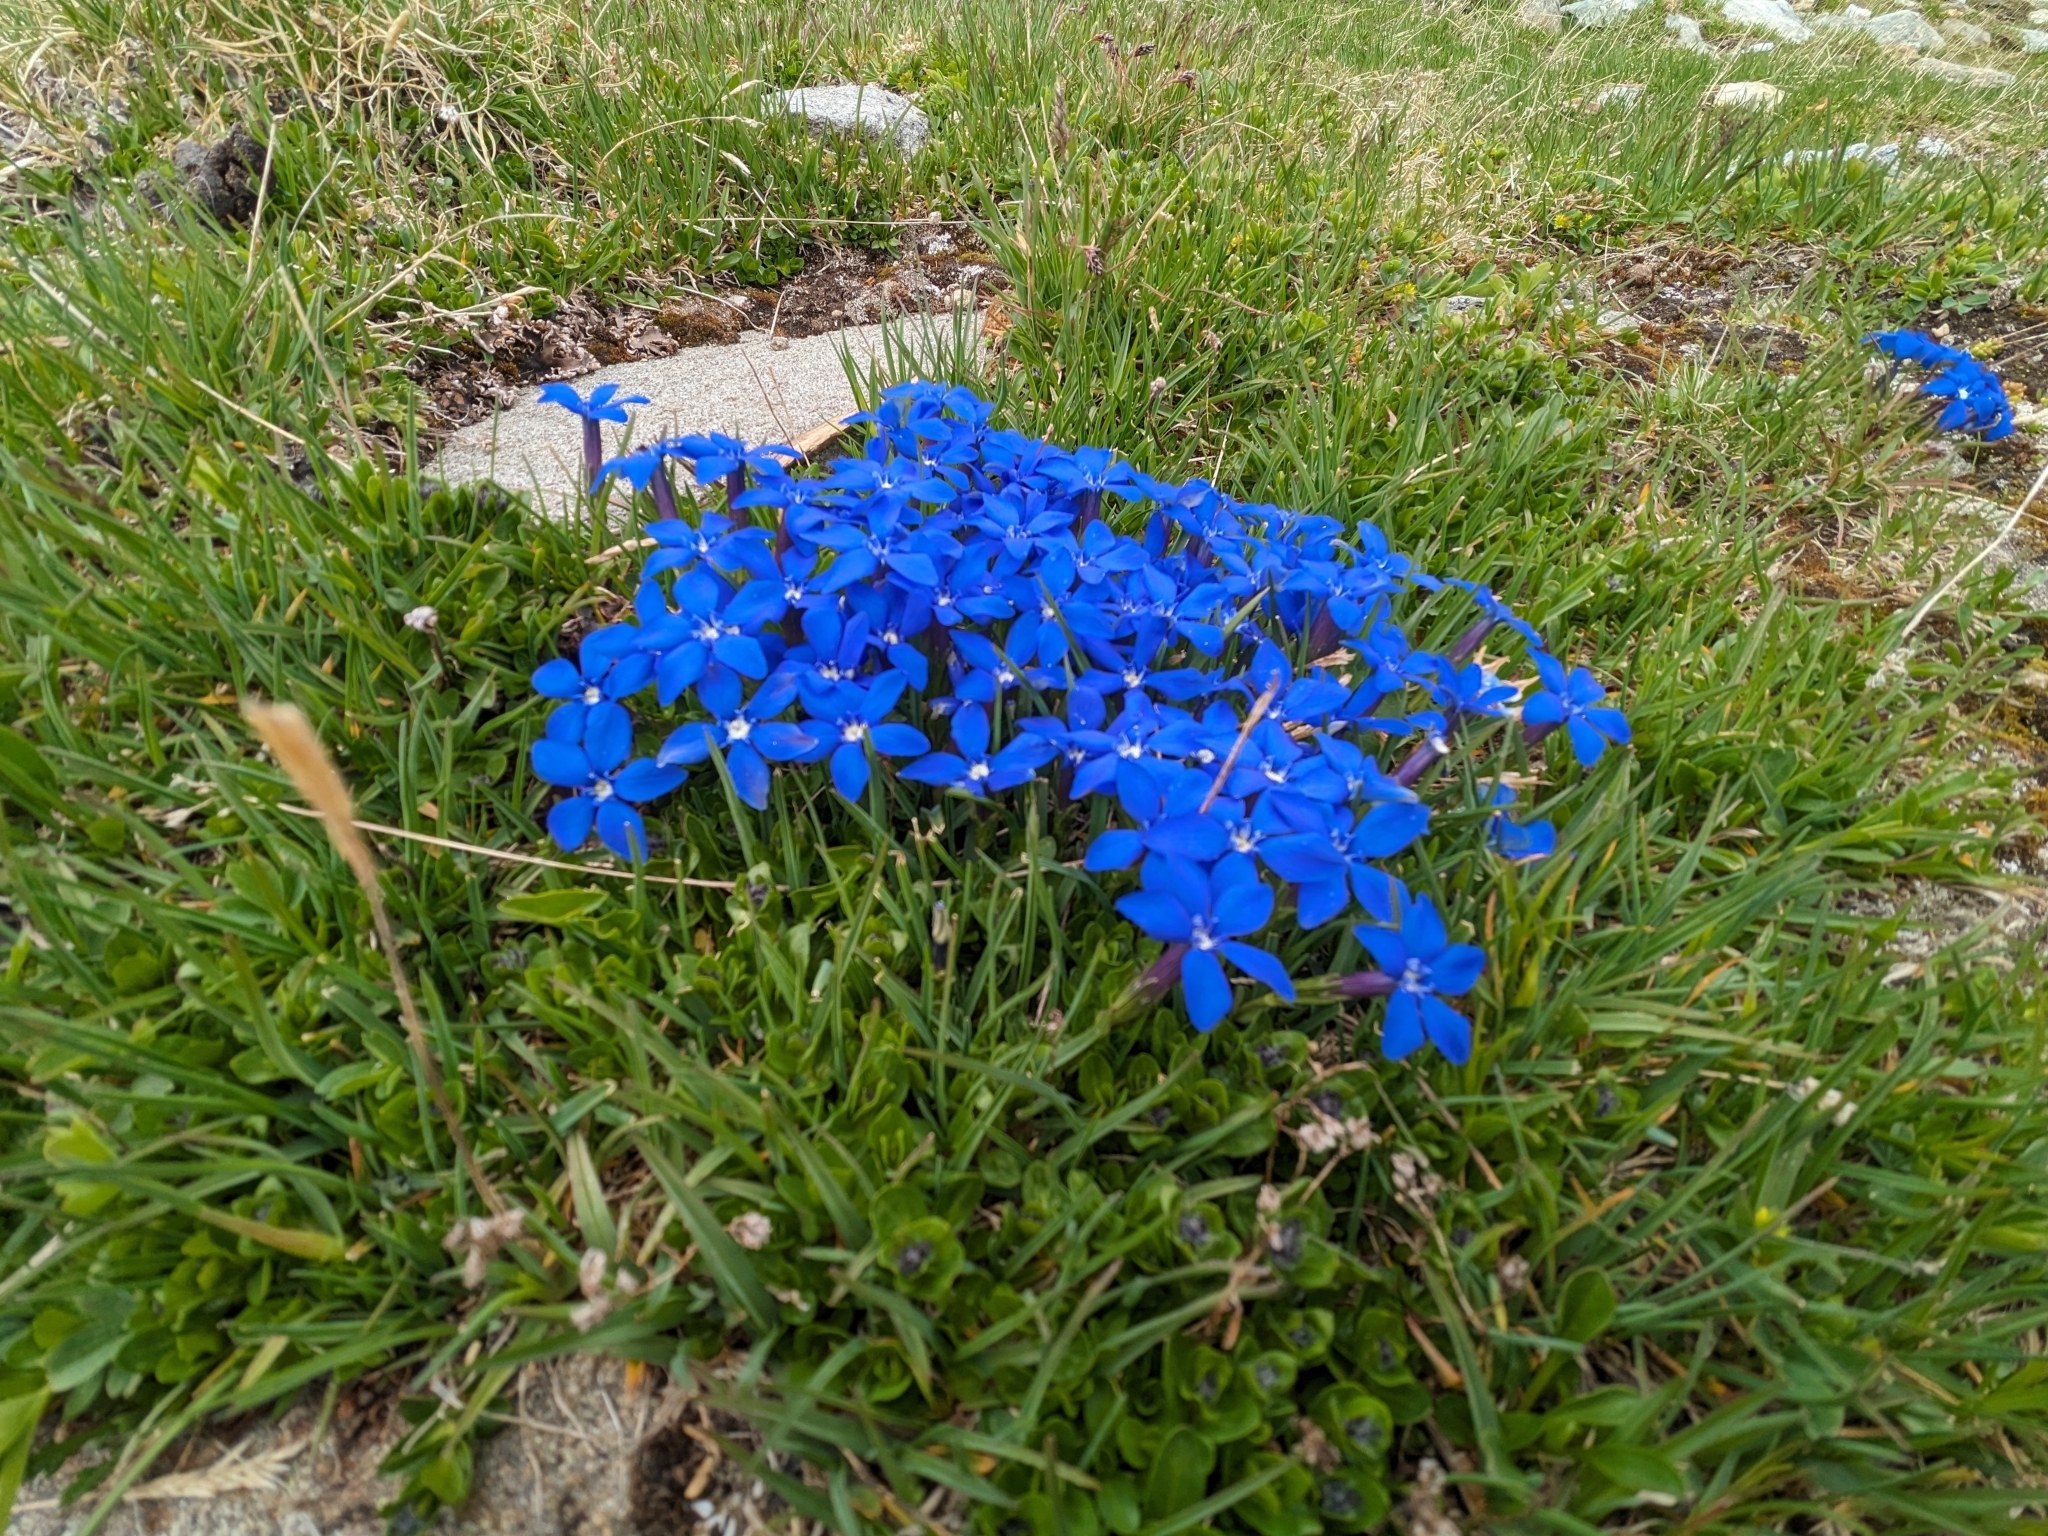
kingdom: Plantae
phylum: Tracheophyta
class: Magnoliopsida
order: Gentianales
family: Gentianaceae
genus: Gentiana
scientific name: Gentiana brachyphylla
